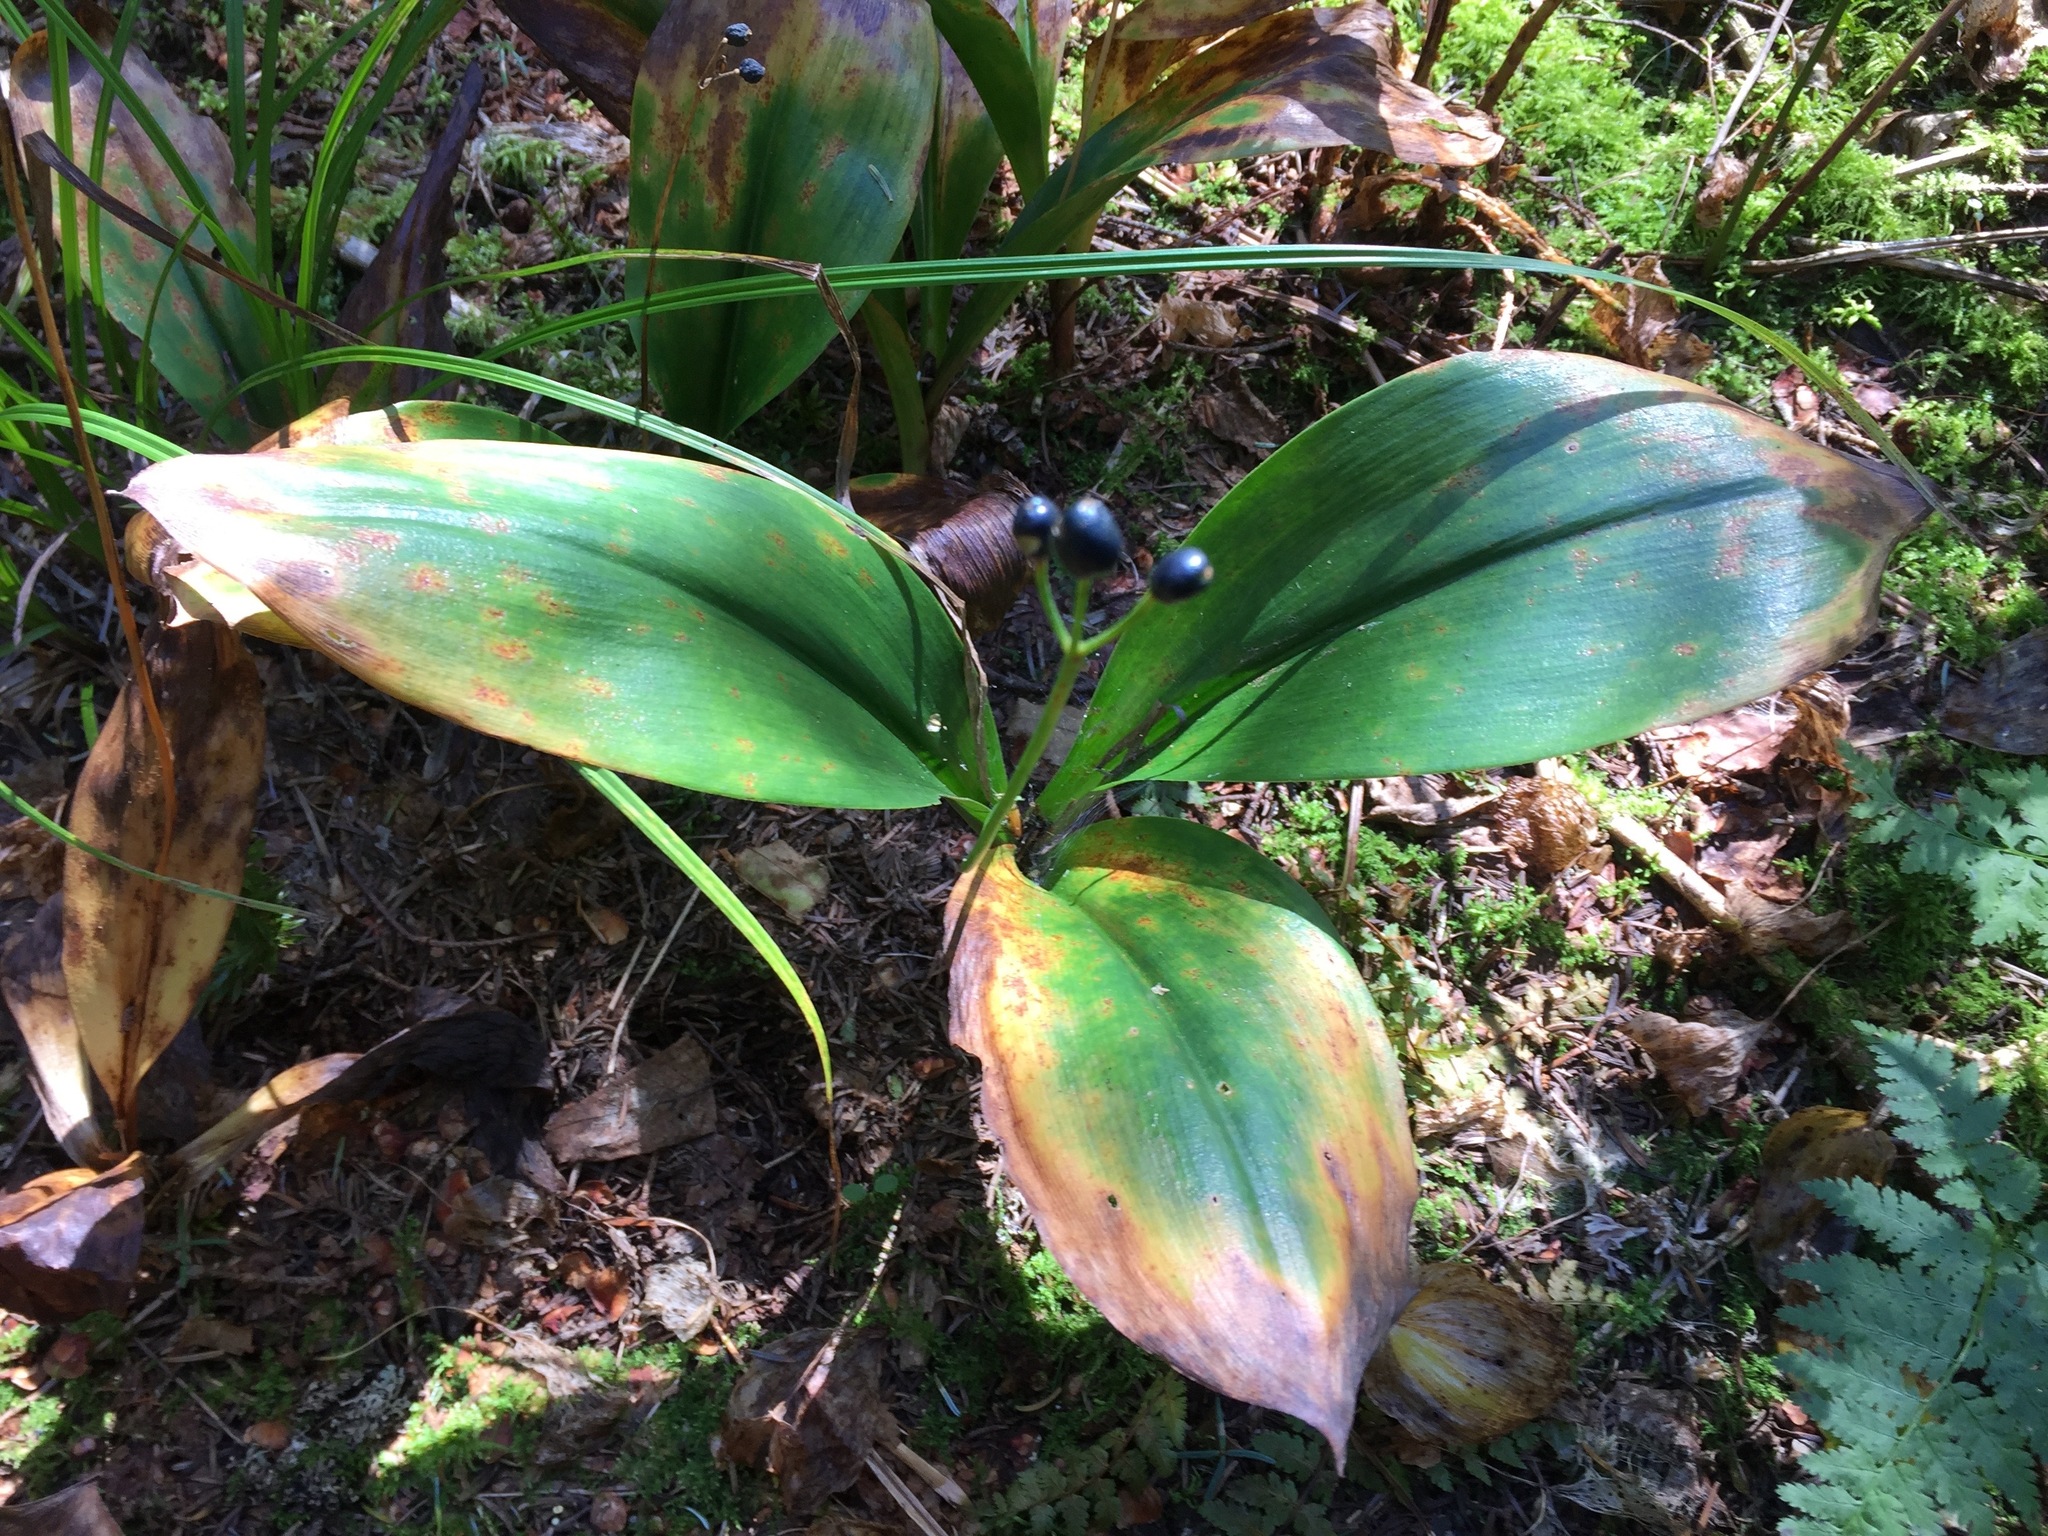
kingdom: Plantae
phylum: Tracheophyta
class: Liliopsida
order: Liliales
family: Liliaceae
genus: Clintonia
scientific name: Clintonia borealis
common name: Yellow clintonia
